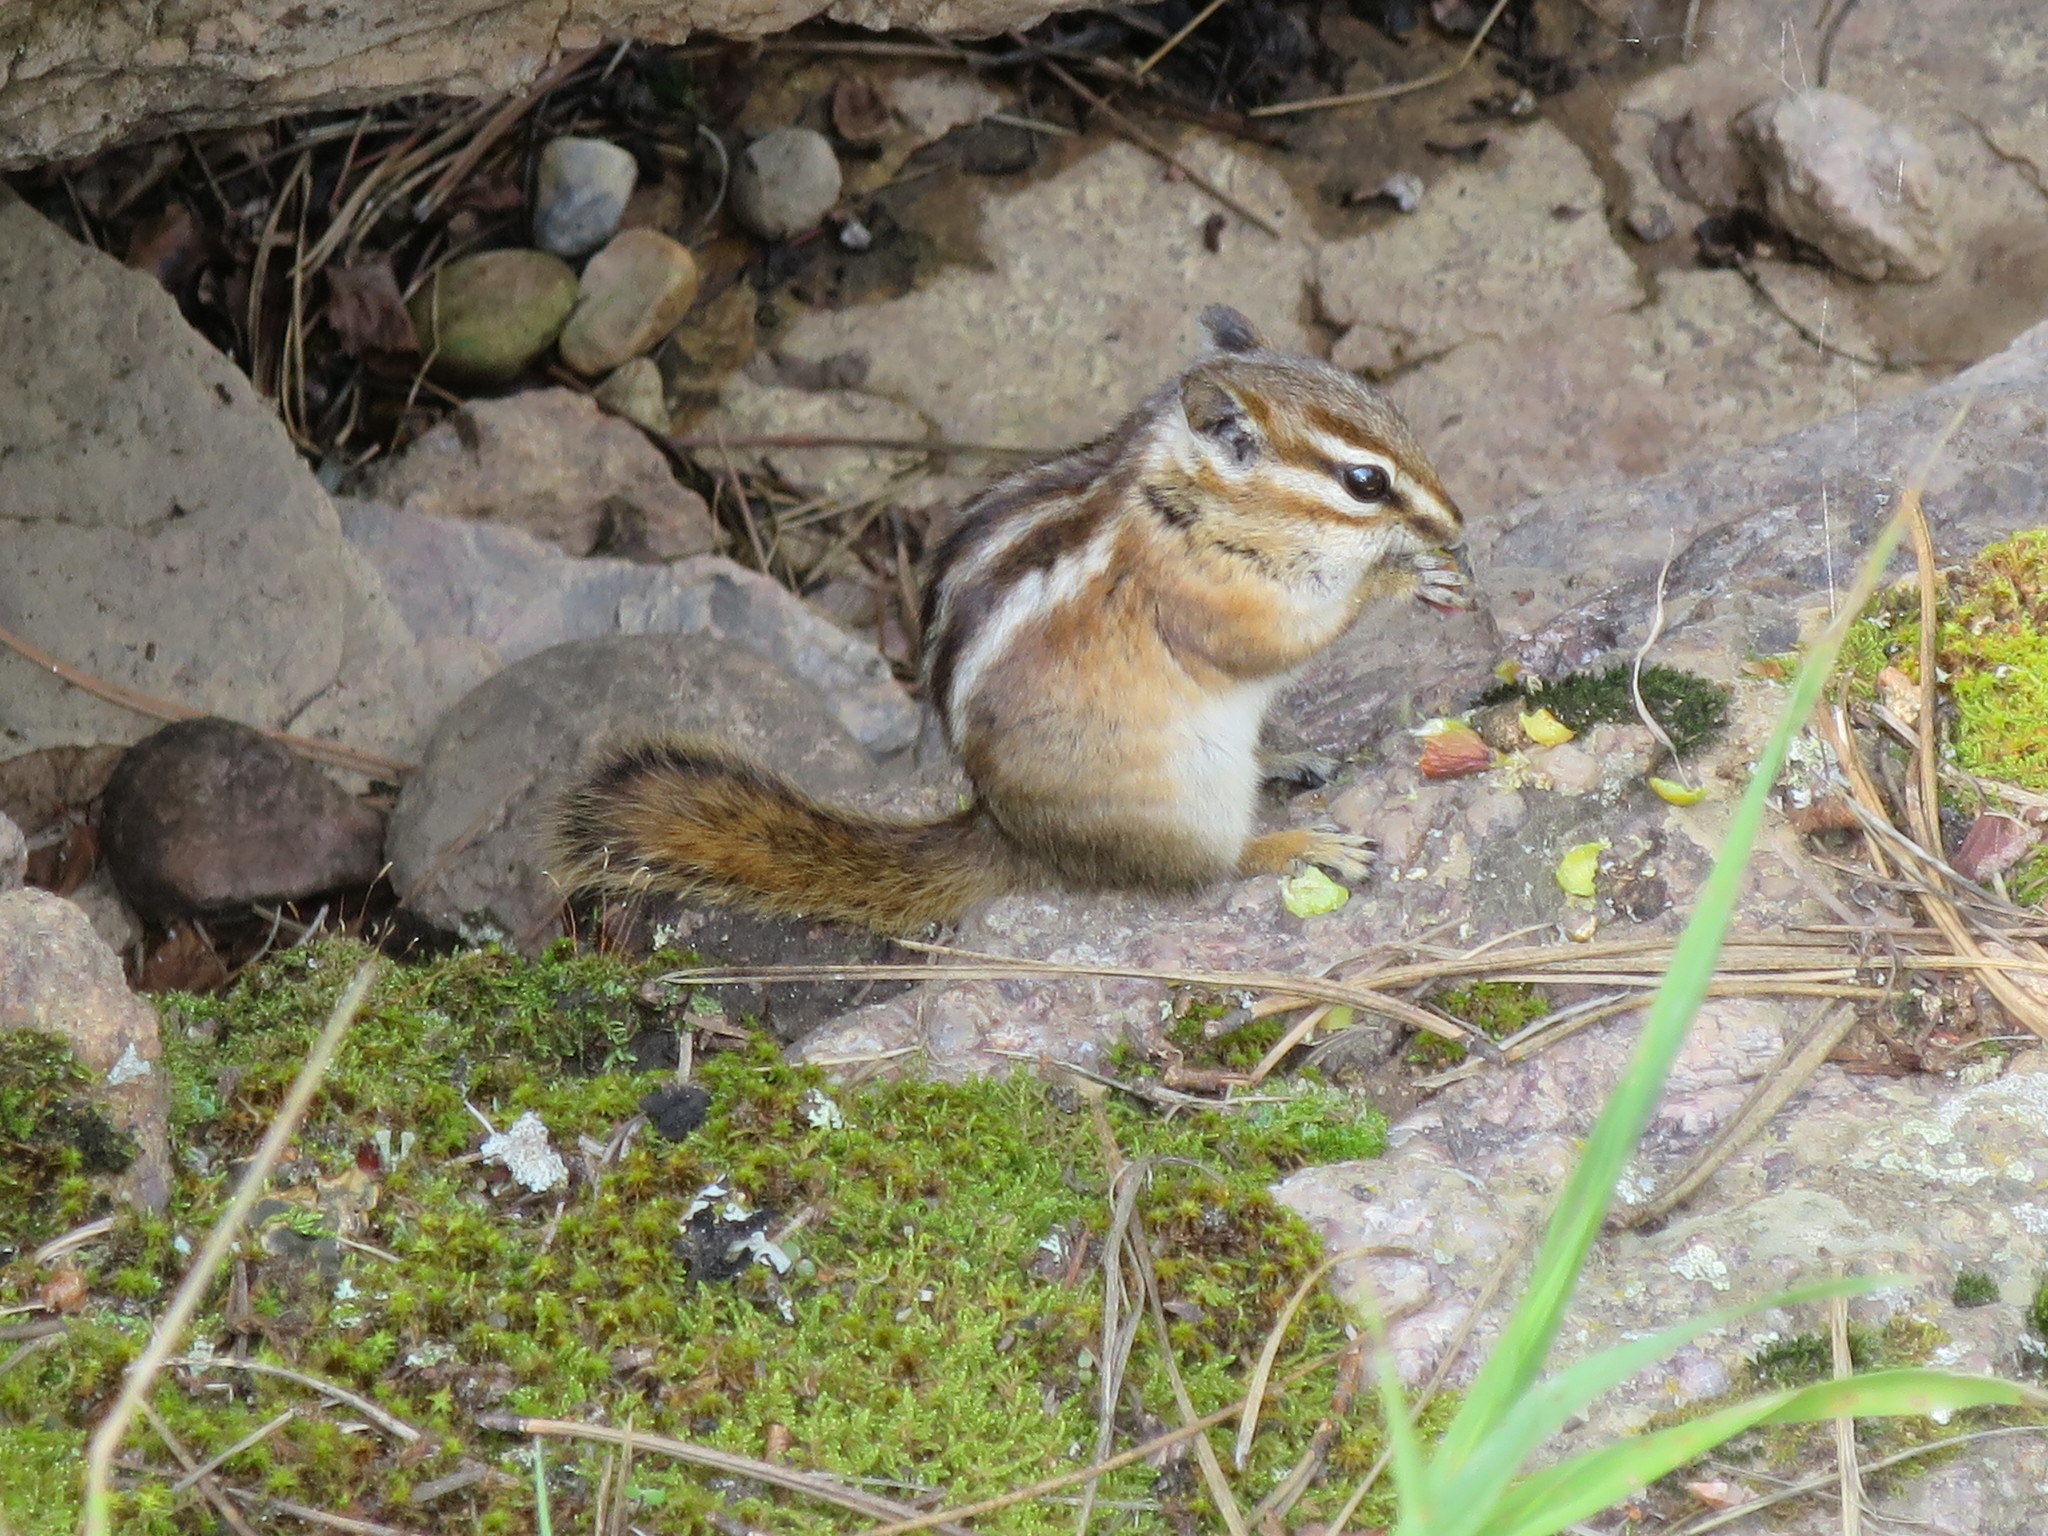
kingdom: Animalia
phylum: Chordata
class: Mammalia
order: Rodentia
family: Sciuridae
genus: Tamias
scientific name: Tamias quadrivittatus
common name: Colorado chipmunk
